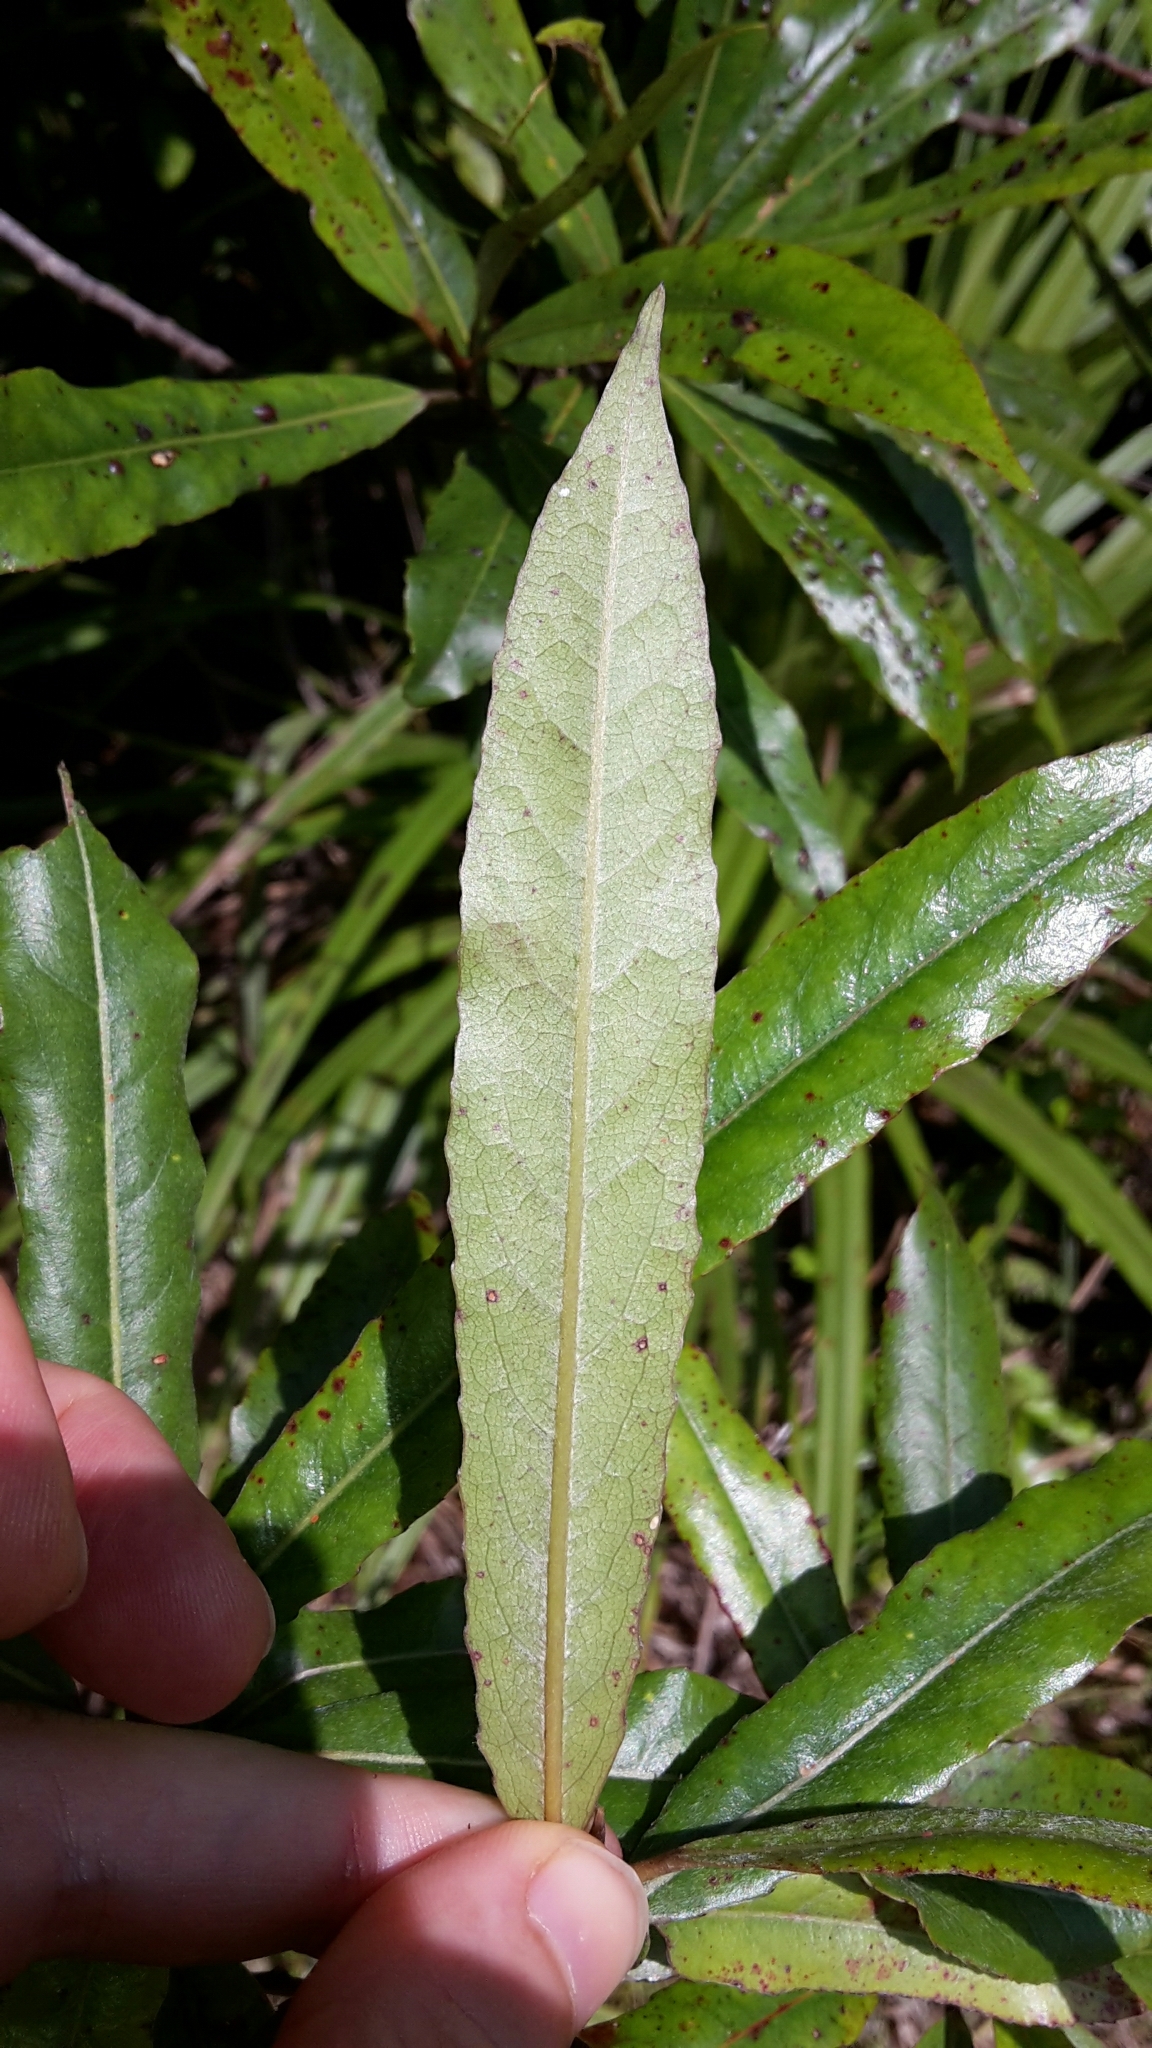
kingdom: Plantae
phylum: Tracheophyta
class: Magnoliopsida
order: Oxalidales
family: Elaeocarpaceae
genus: Elaeocarpus
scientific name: Elaeocarpus dentatus
